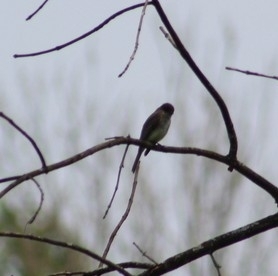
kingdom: Animalia
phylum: Chordata
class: Aves
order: Passeriformes
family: Tyrannidae
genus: Sayornis
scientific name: Sayornis phoebe
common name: Eastern phoebe
